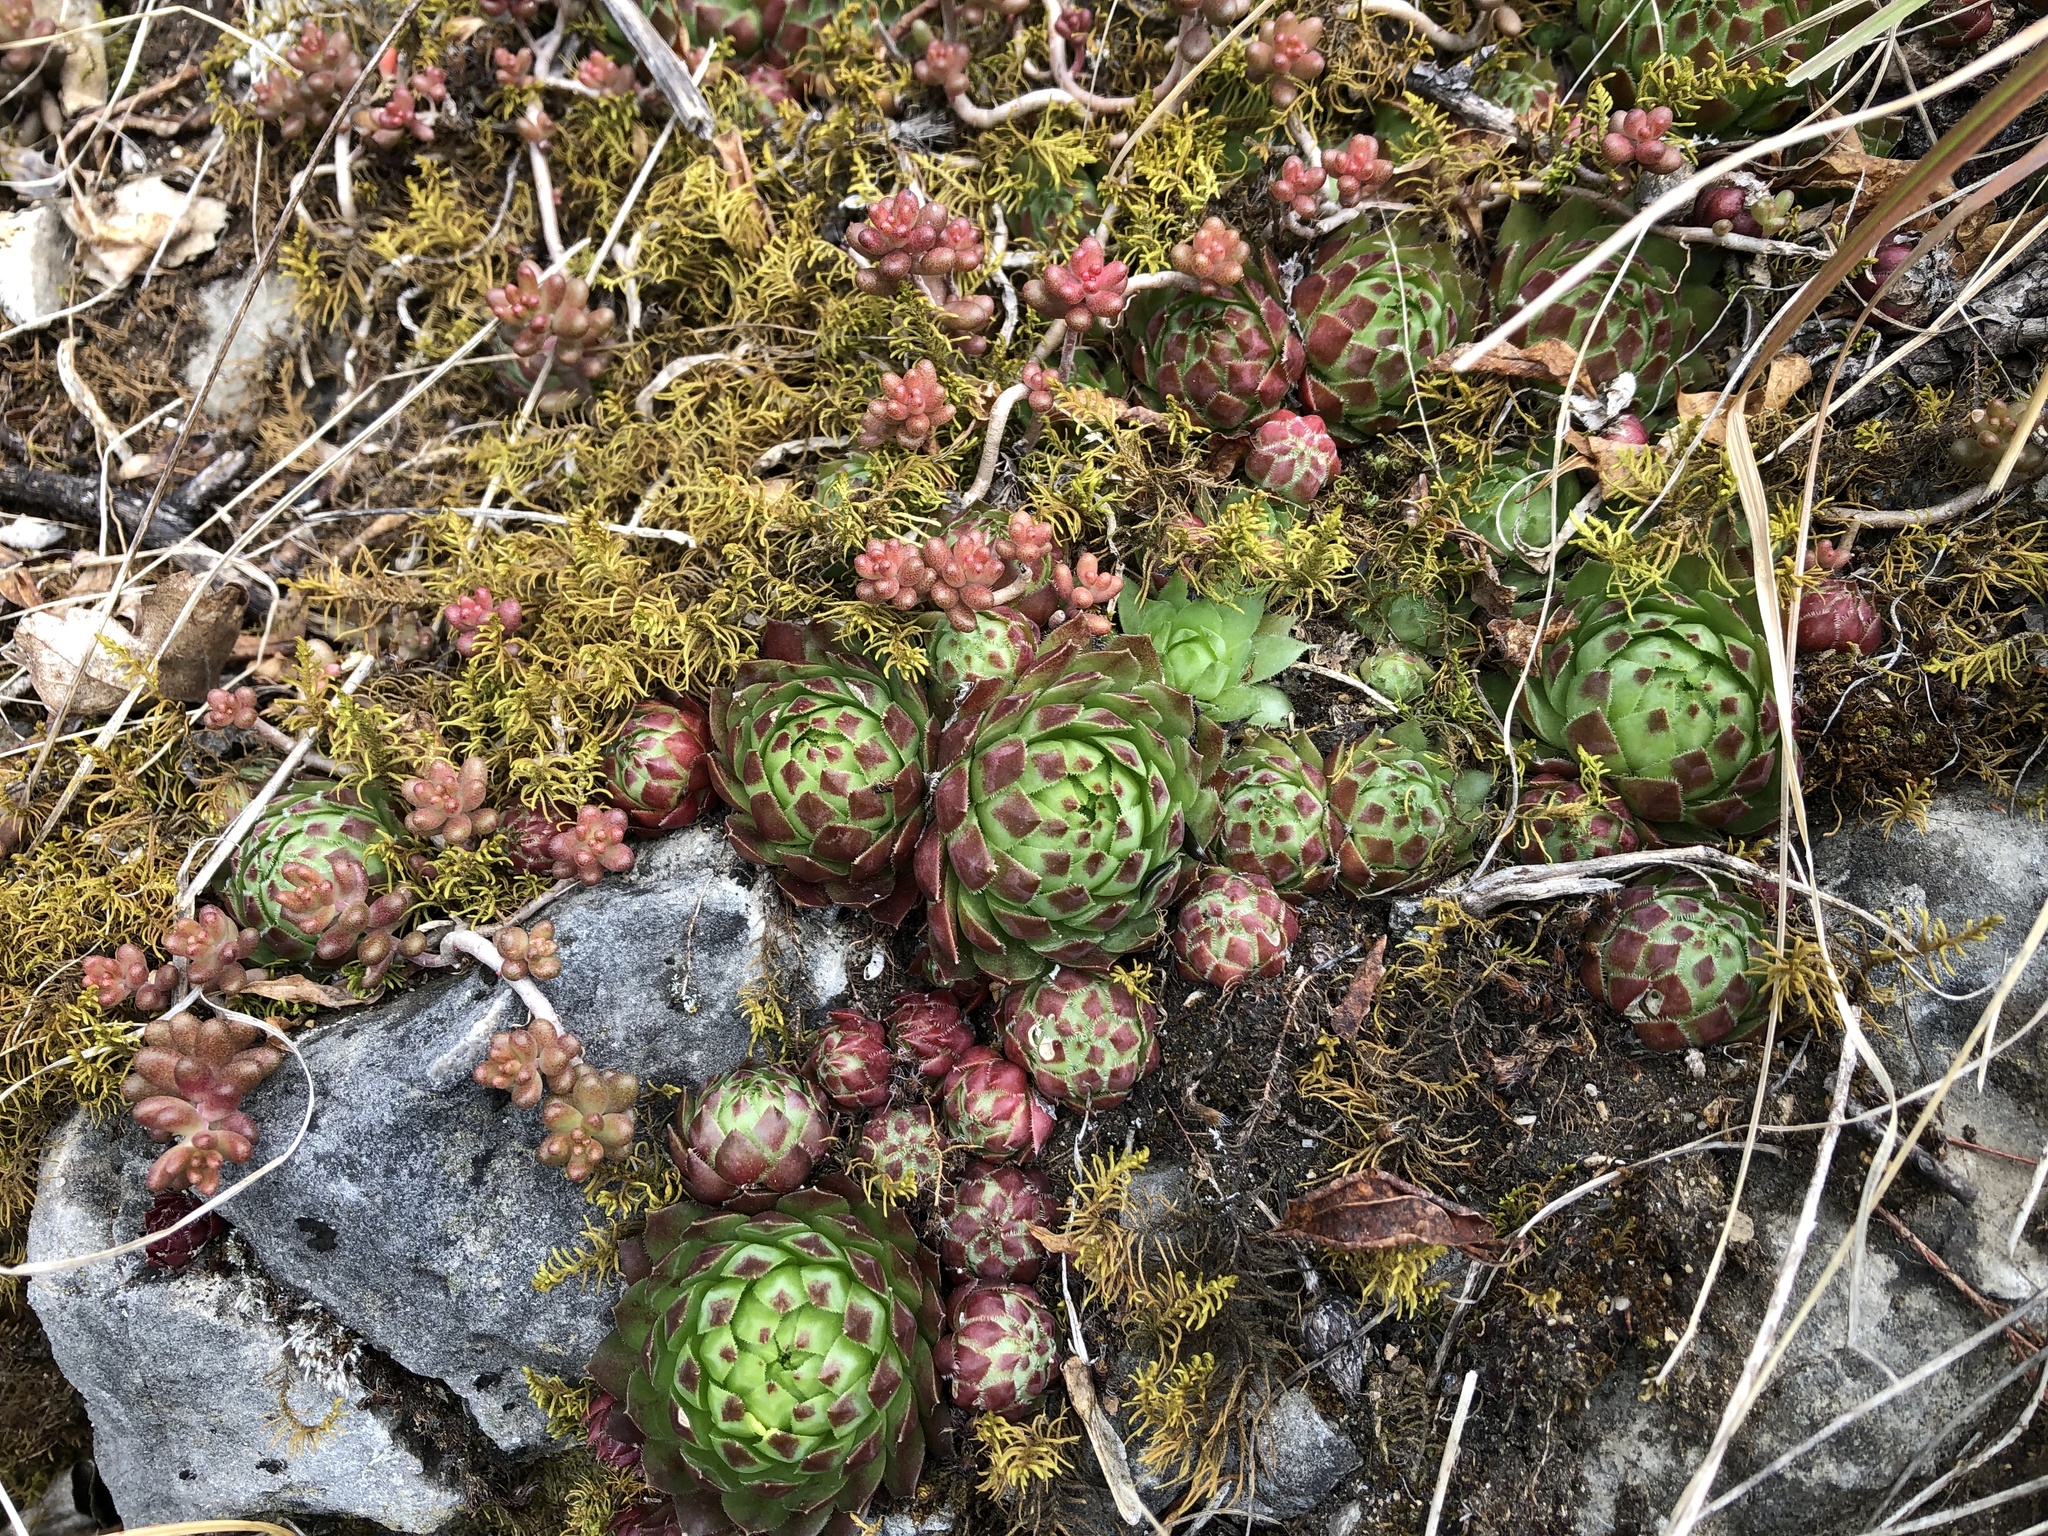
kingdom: Plantae
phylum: Tracheophyta
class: Magnoliopsida
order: Saxifragales
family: Crassulaceae
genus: Sempervivum
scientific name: Sempervivum globiferum
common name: Rolling hen-and-chicks
